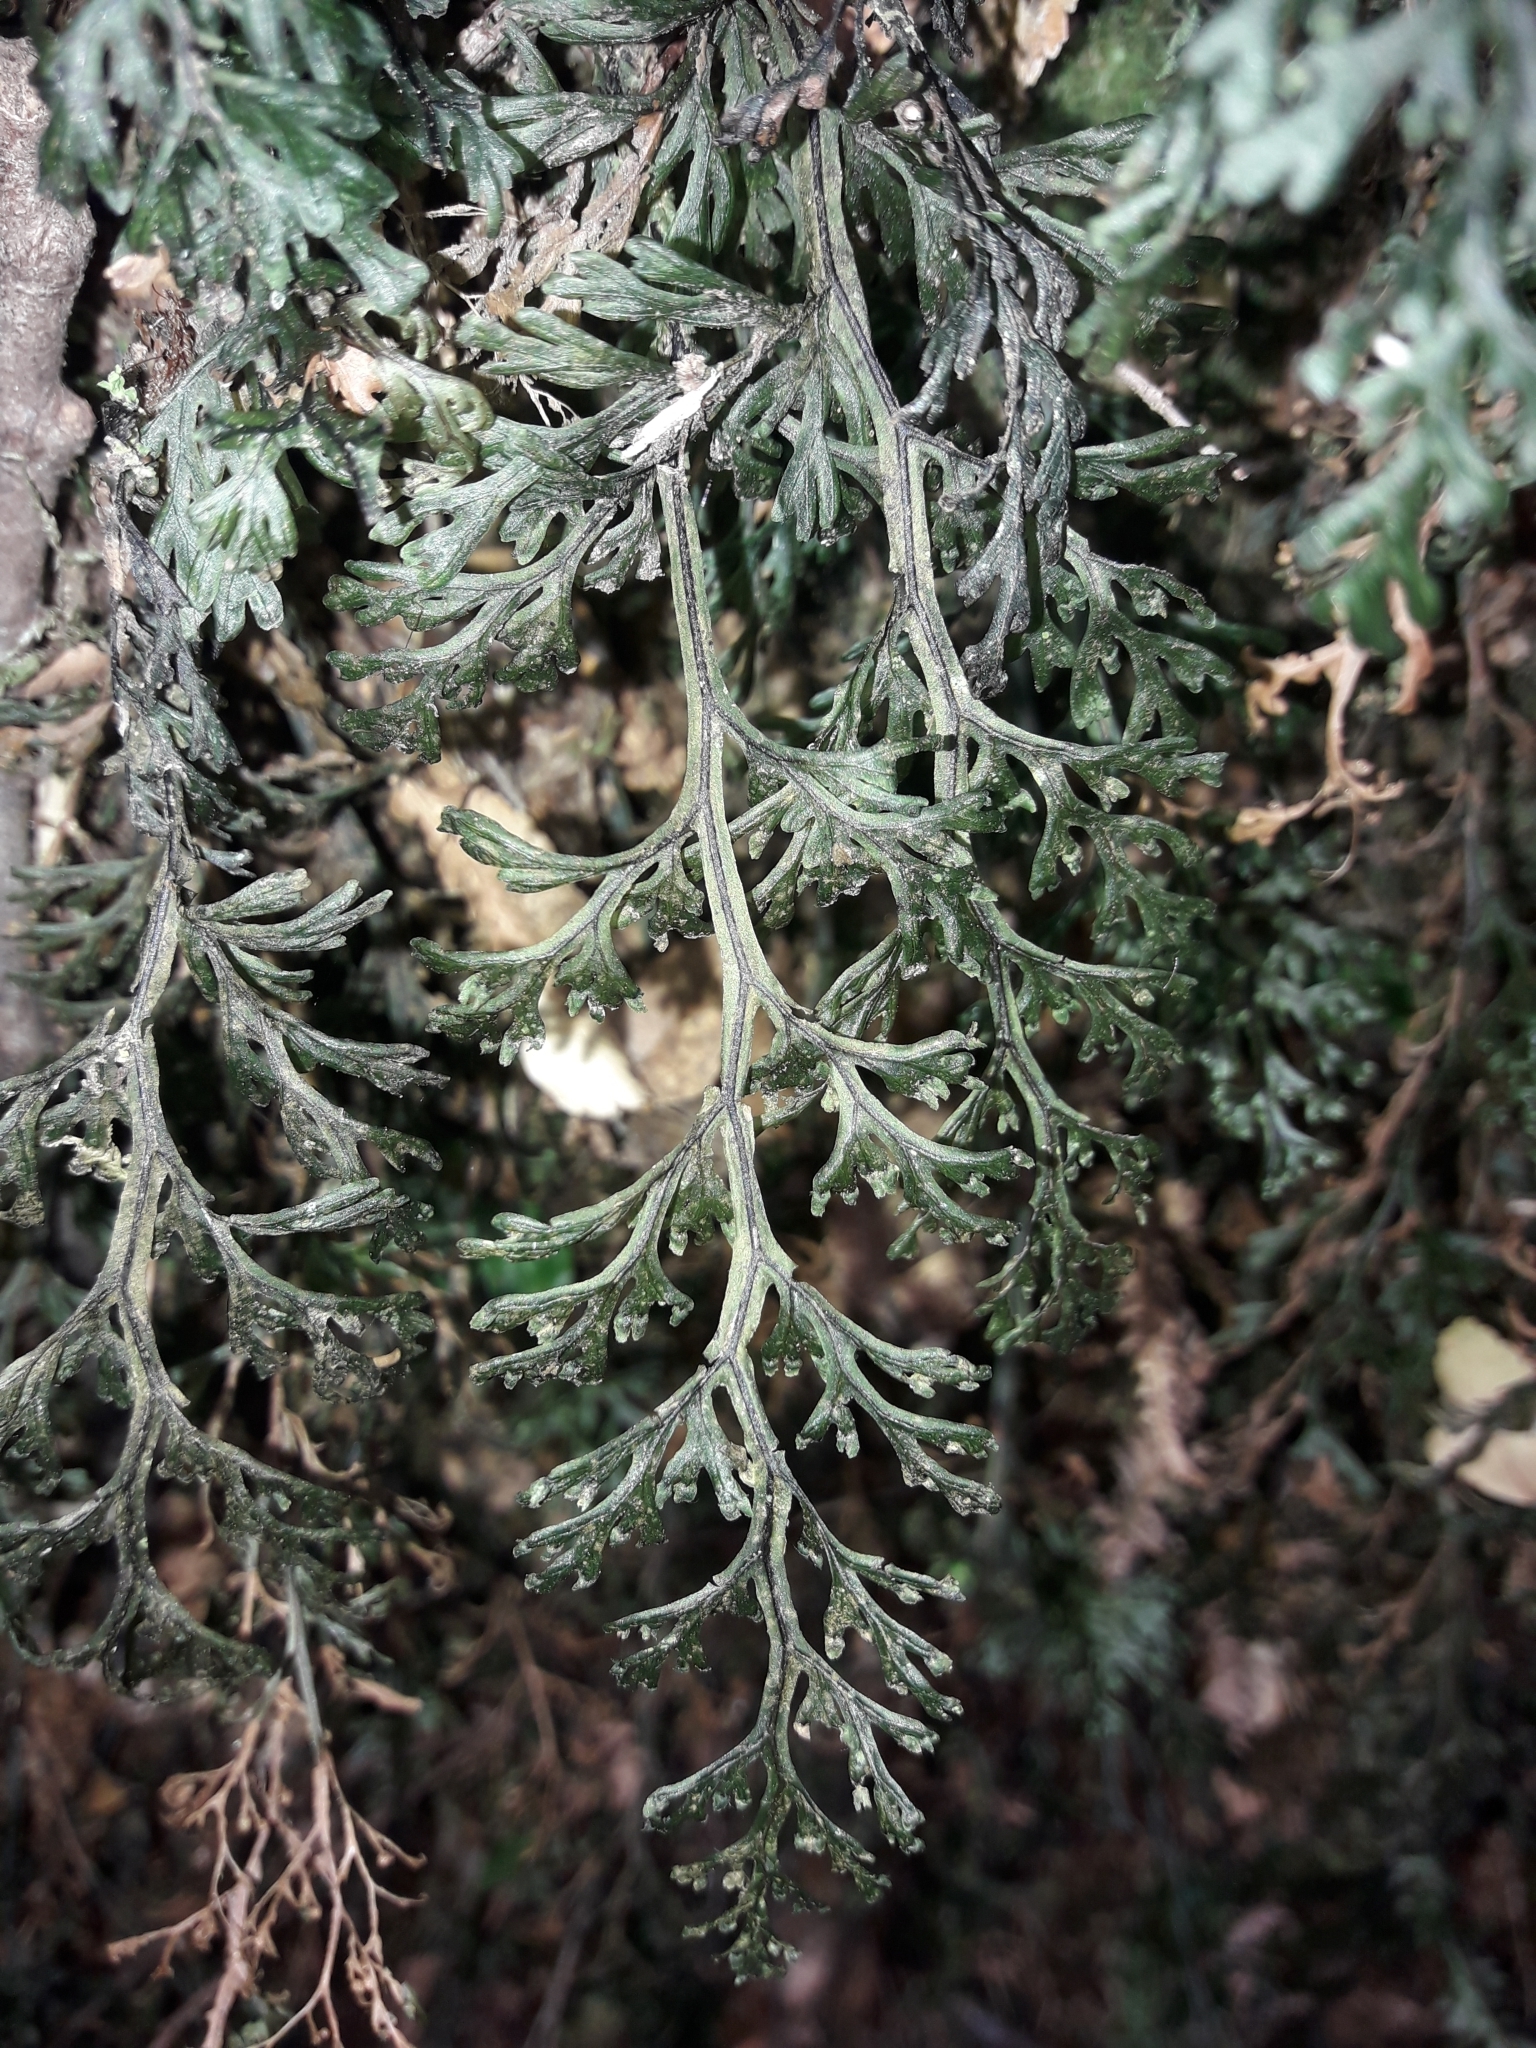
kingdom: Plantae
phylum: Tracheophyta
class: Polypodiopsida
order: Hymenophyllales
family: Hymenophyllaceae
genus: Hymenophyllum
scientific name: Hymenophyllum australe
